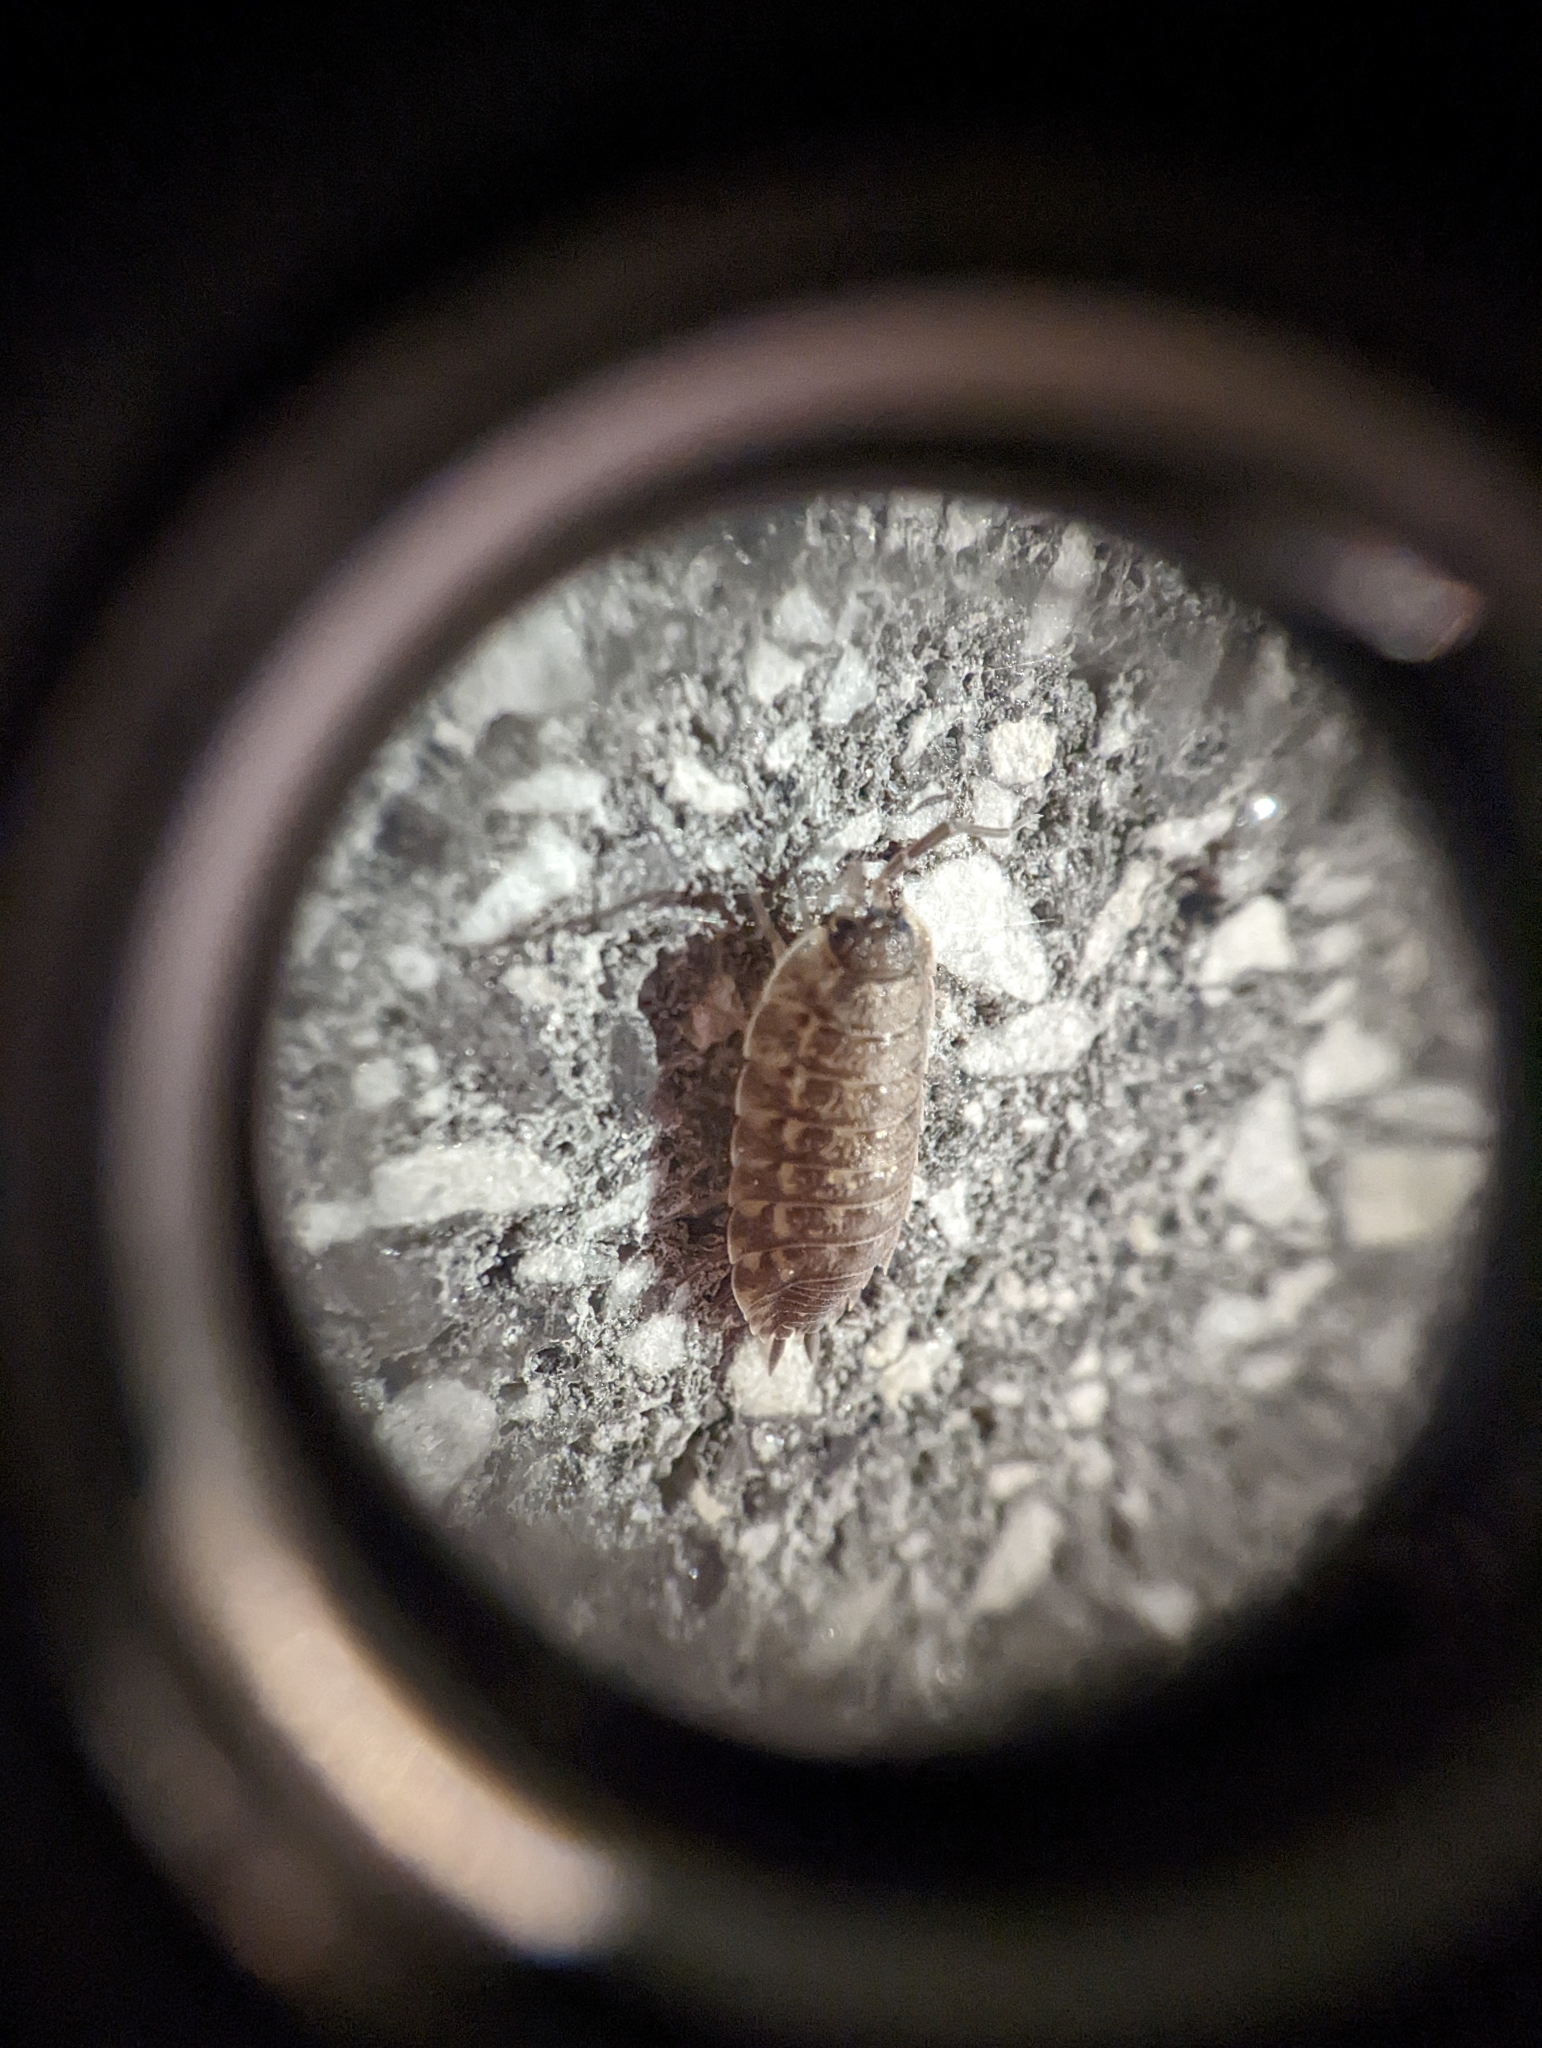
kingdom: Animalia
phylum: Arthropoda
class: Malacostraca
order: Isopoda
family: Porcellionidae
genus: Porcellio
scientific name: Porcellio spinicornis
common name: Painted woodlouse
